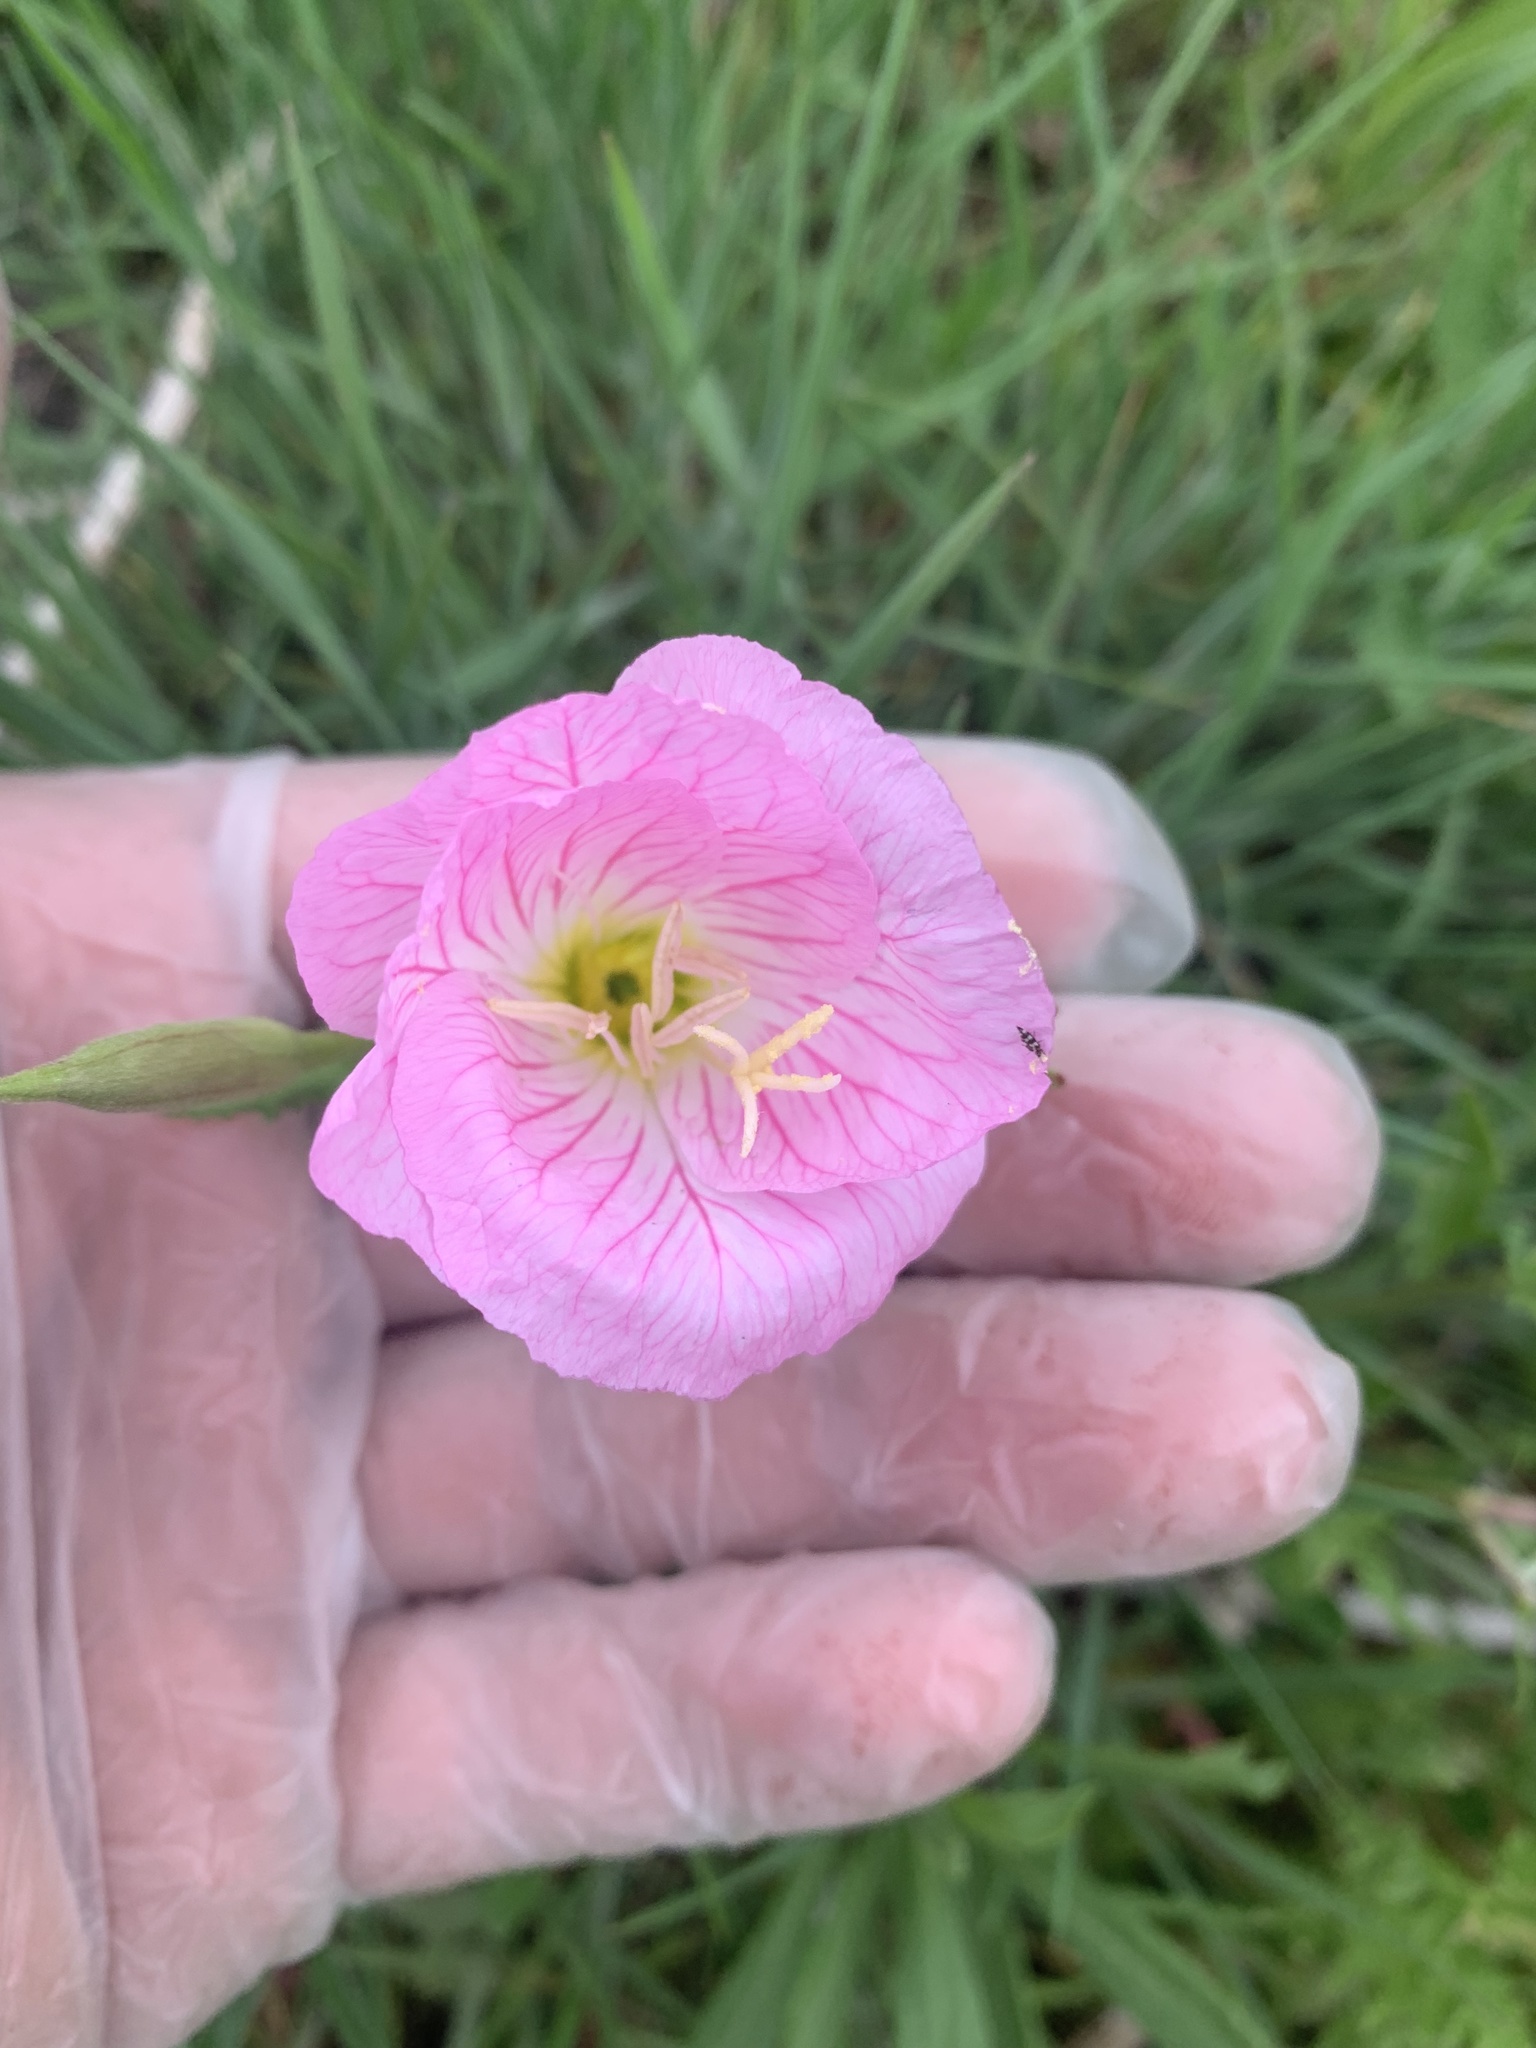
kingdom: Plantae
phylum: Tracheophyta
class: Magnoliopsida
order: Myrtales
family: Onagraceae
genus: Oenothera
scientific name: Oenothera speciosa
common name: White evening-primrose
